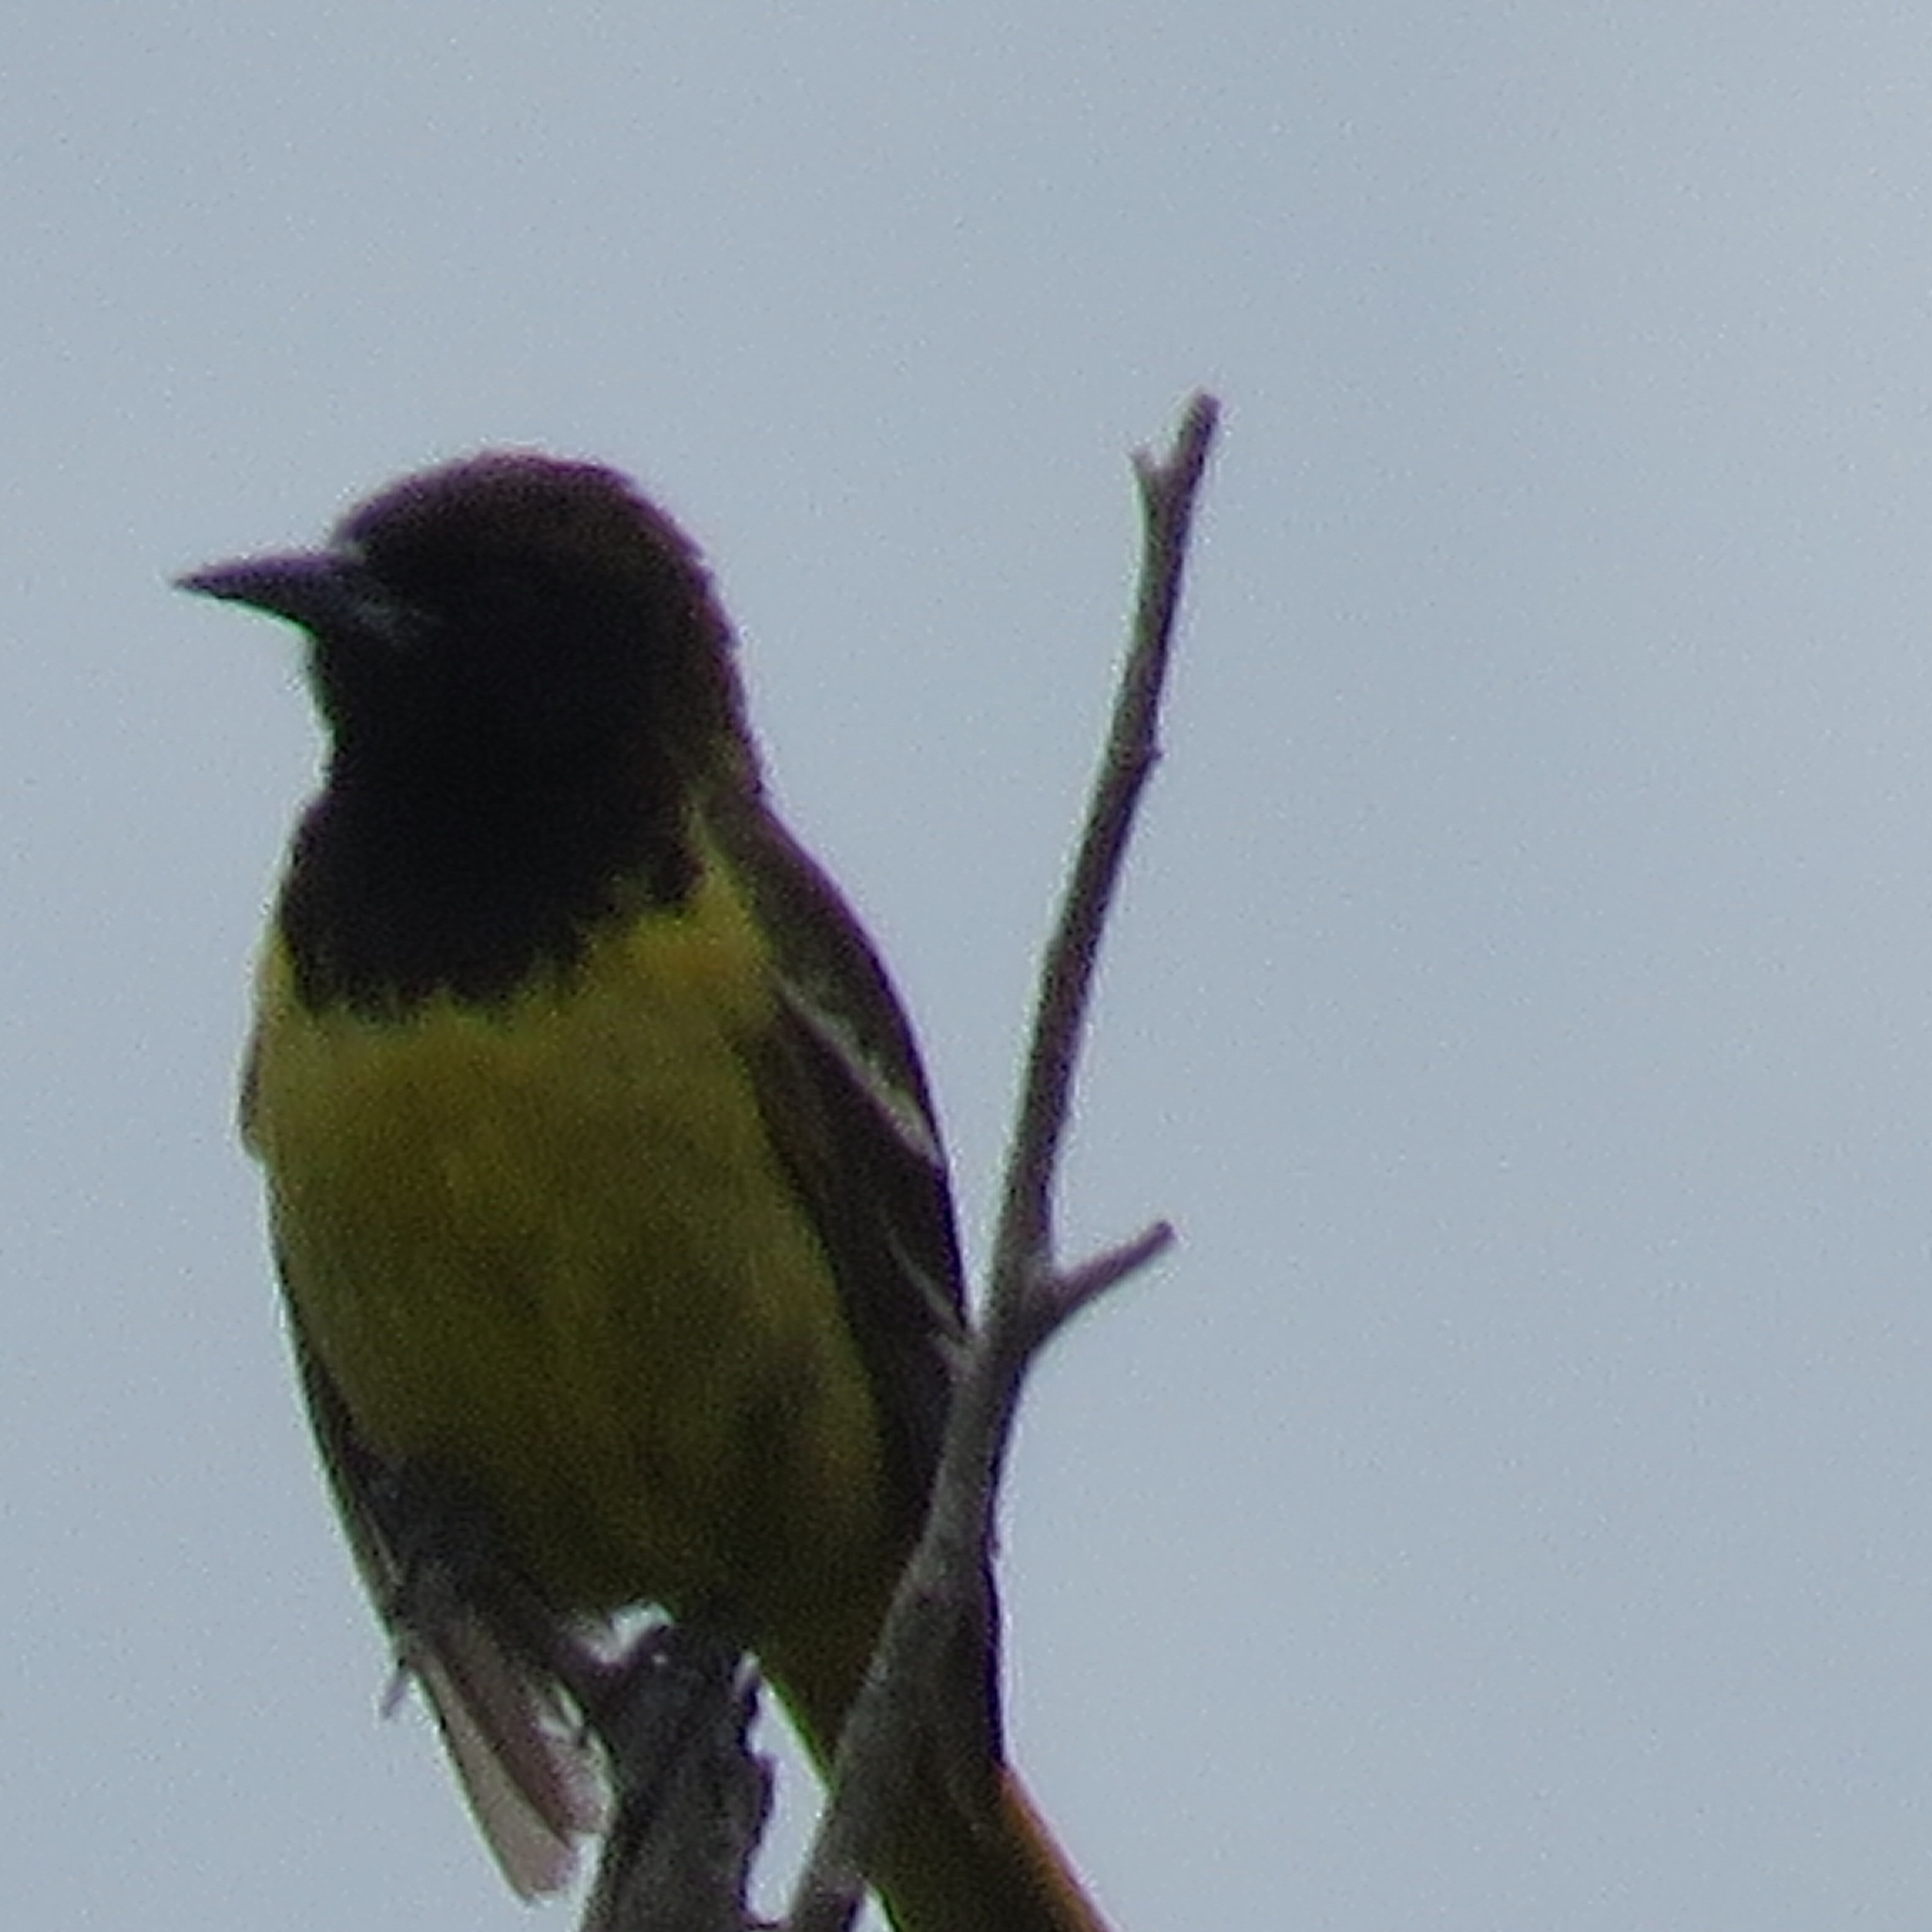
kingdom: Animalia
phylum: Chordata
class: Aves
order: Passeriformes
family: Icteridae
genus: Icterus
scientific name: Icterus parisorum
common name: Scott's oriole
